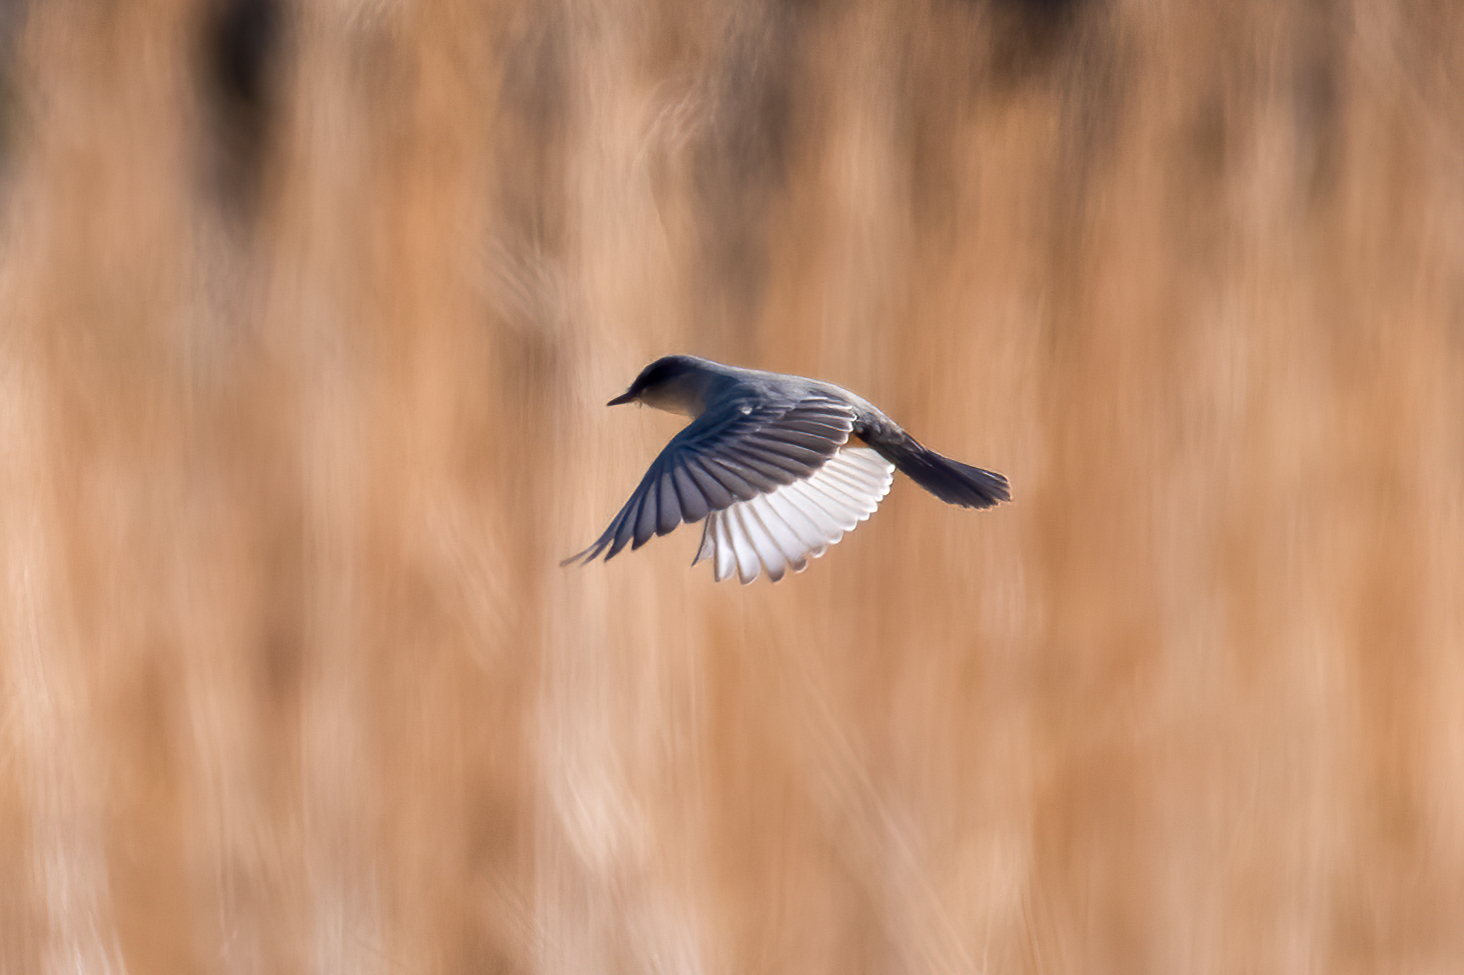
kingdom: Animalia
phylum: Chordata
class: Aves
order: Passeriformes
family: Tyrannidae
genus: Sayornis
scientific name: Sayornis saya
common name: Say's phoebe
